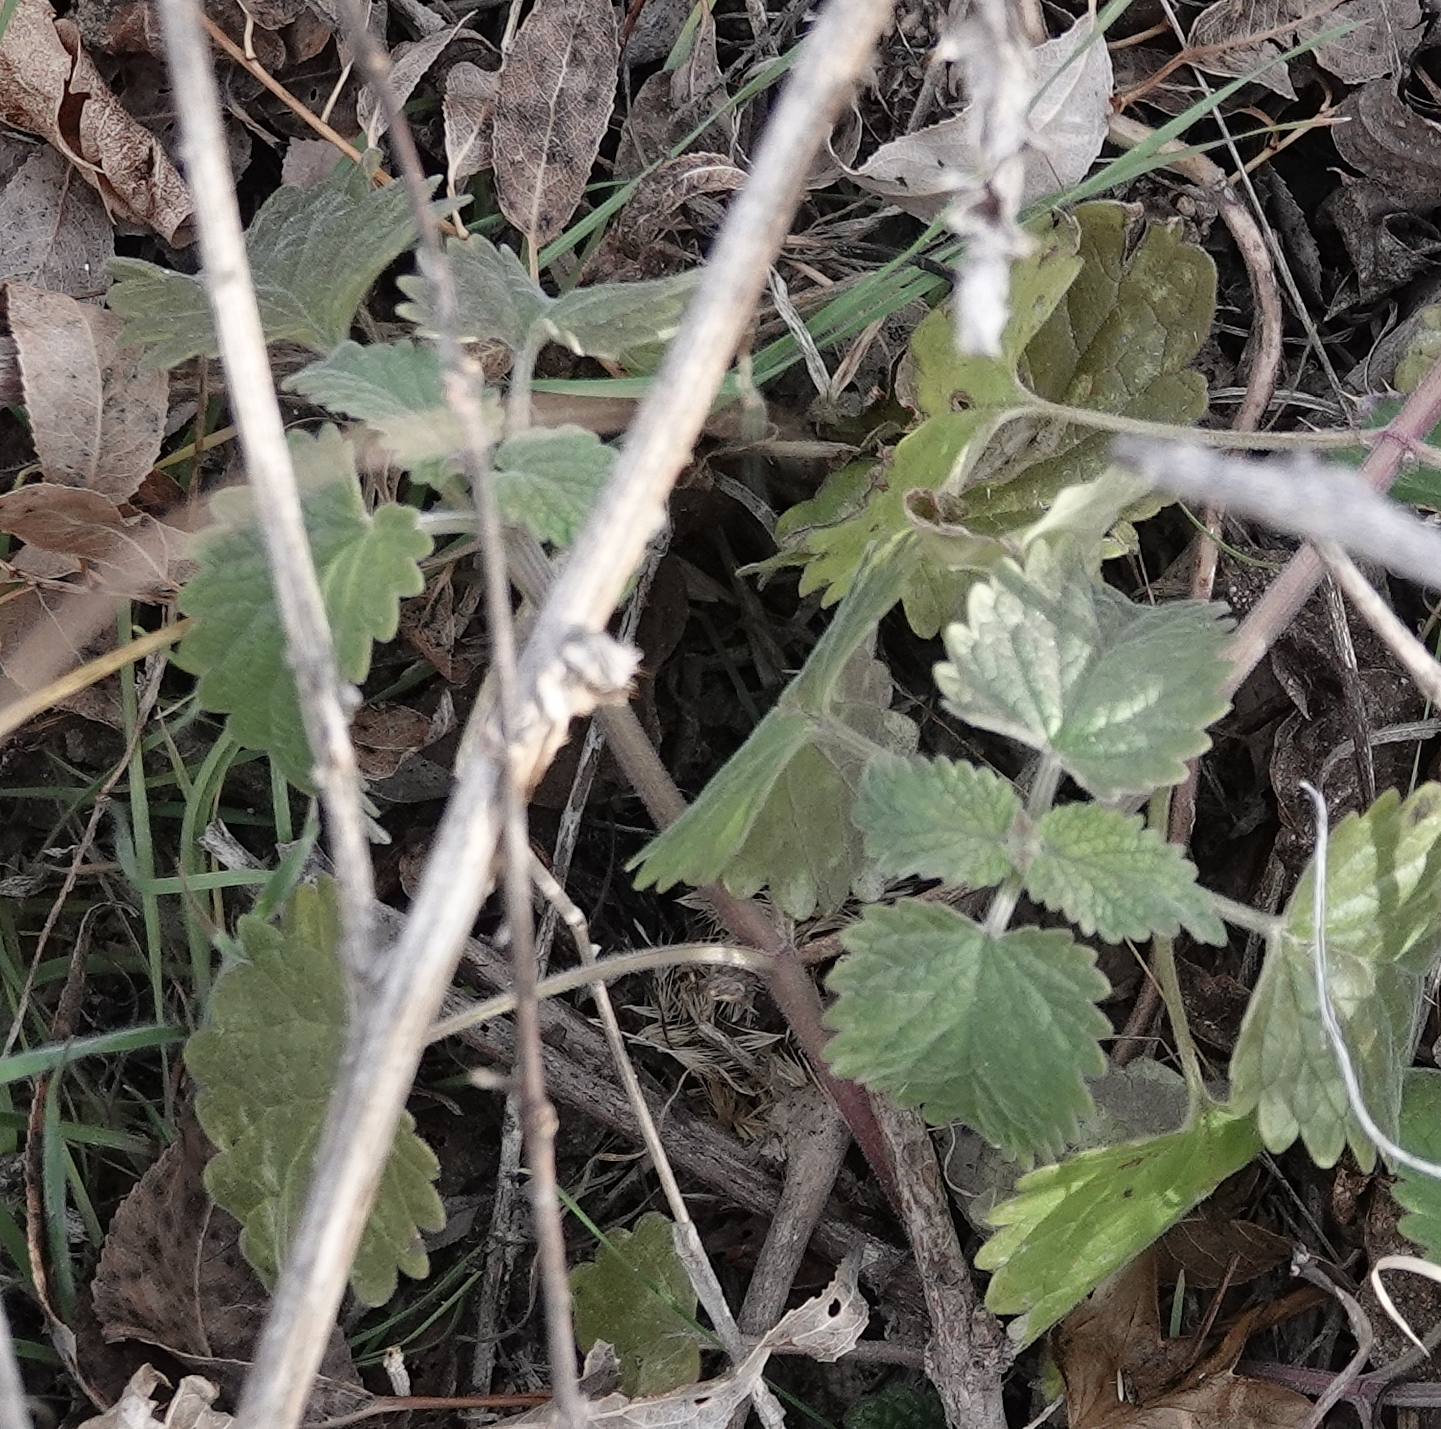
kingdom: Plantae
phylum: Tracheophyta
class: Magnoliopsida
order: Lamiales
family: Lamiaceae
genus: Nepeta
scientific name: Nepeta cataria
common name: Catnip
